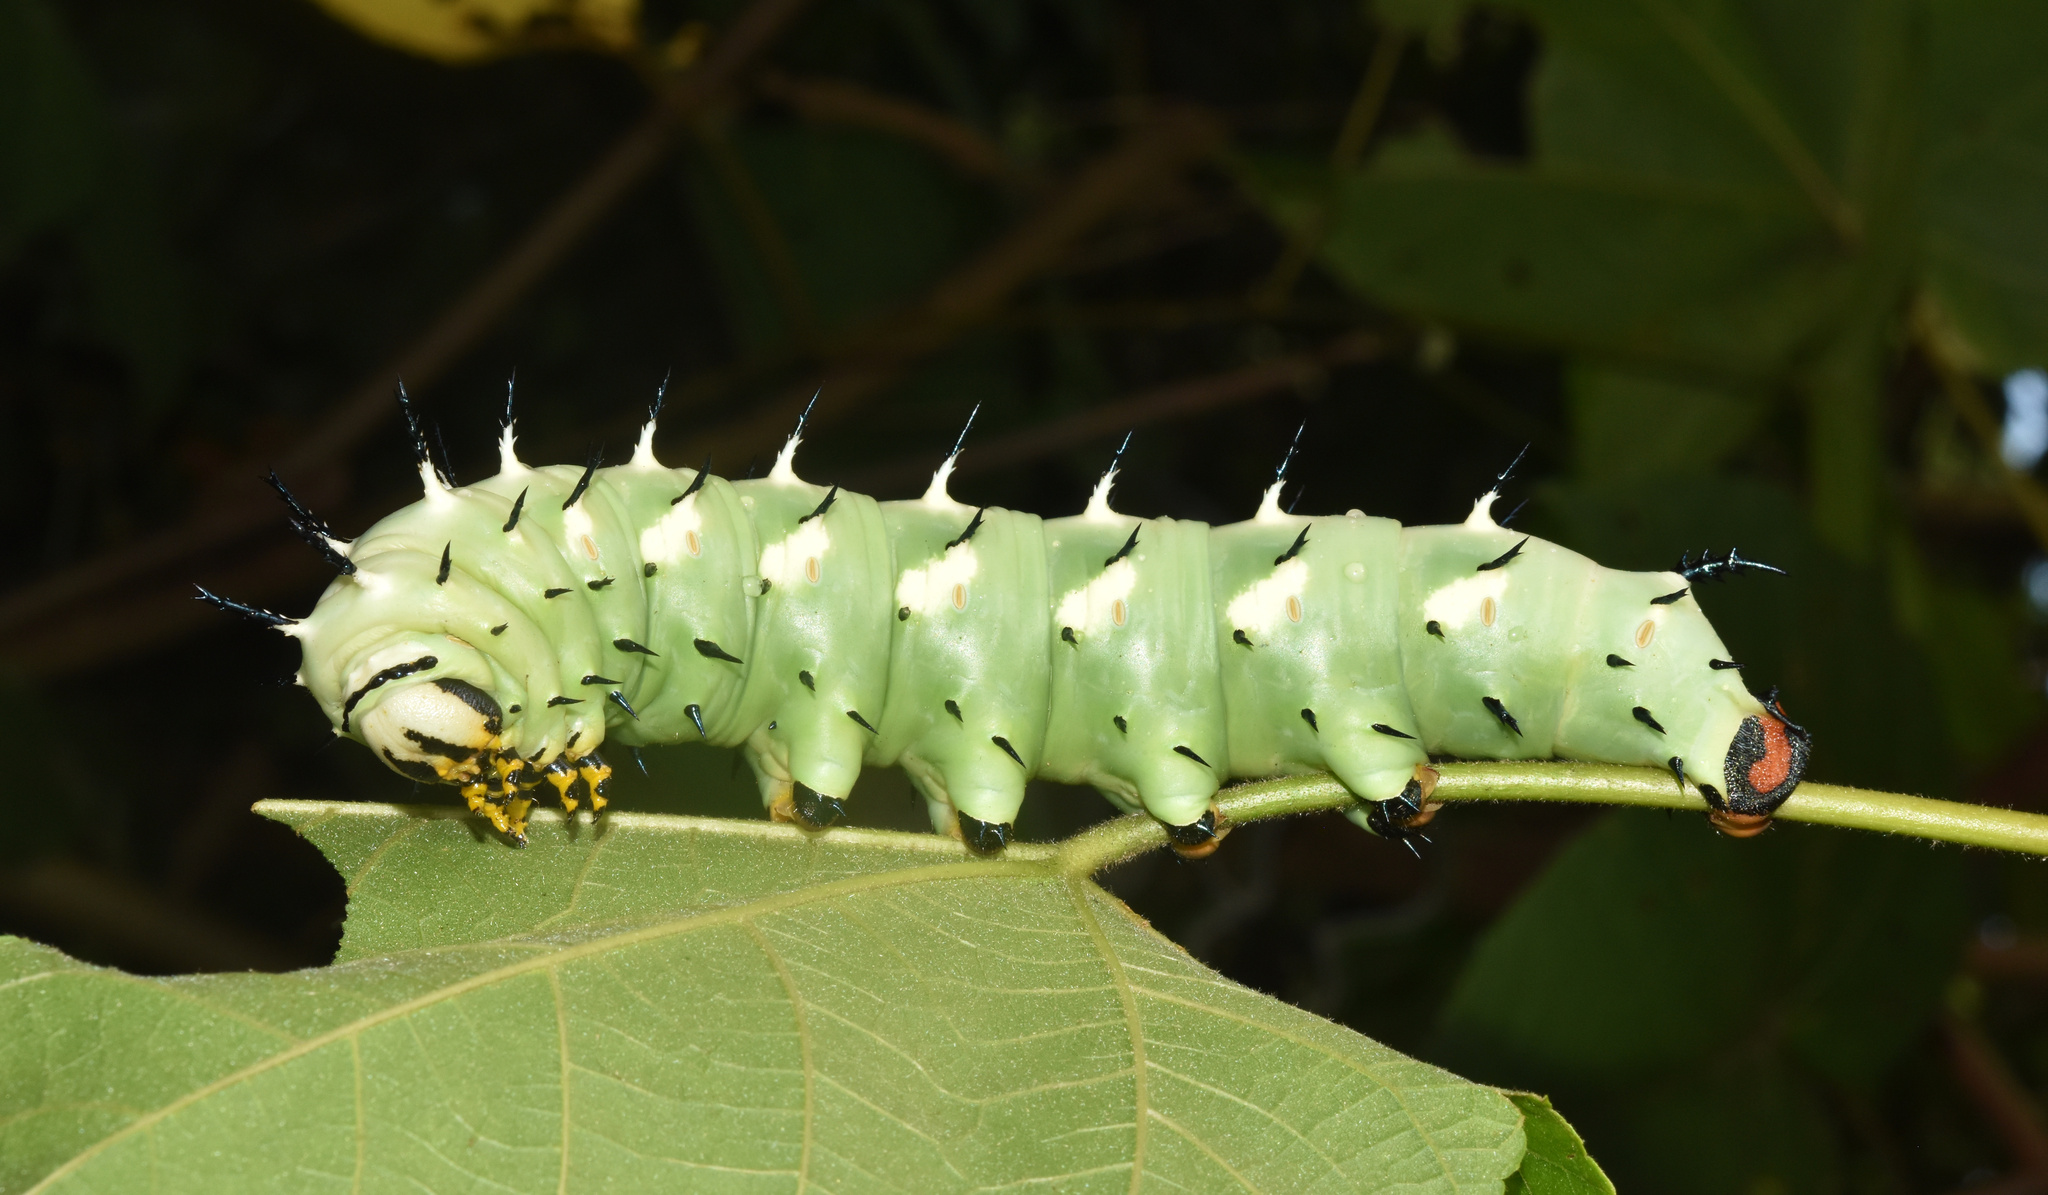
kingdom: Animalia
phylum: Arthropoda
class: Insecta
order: Lepidoptera
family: Sphingidae
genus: Lophostethus
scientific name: Lophostethus dumolinii
